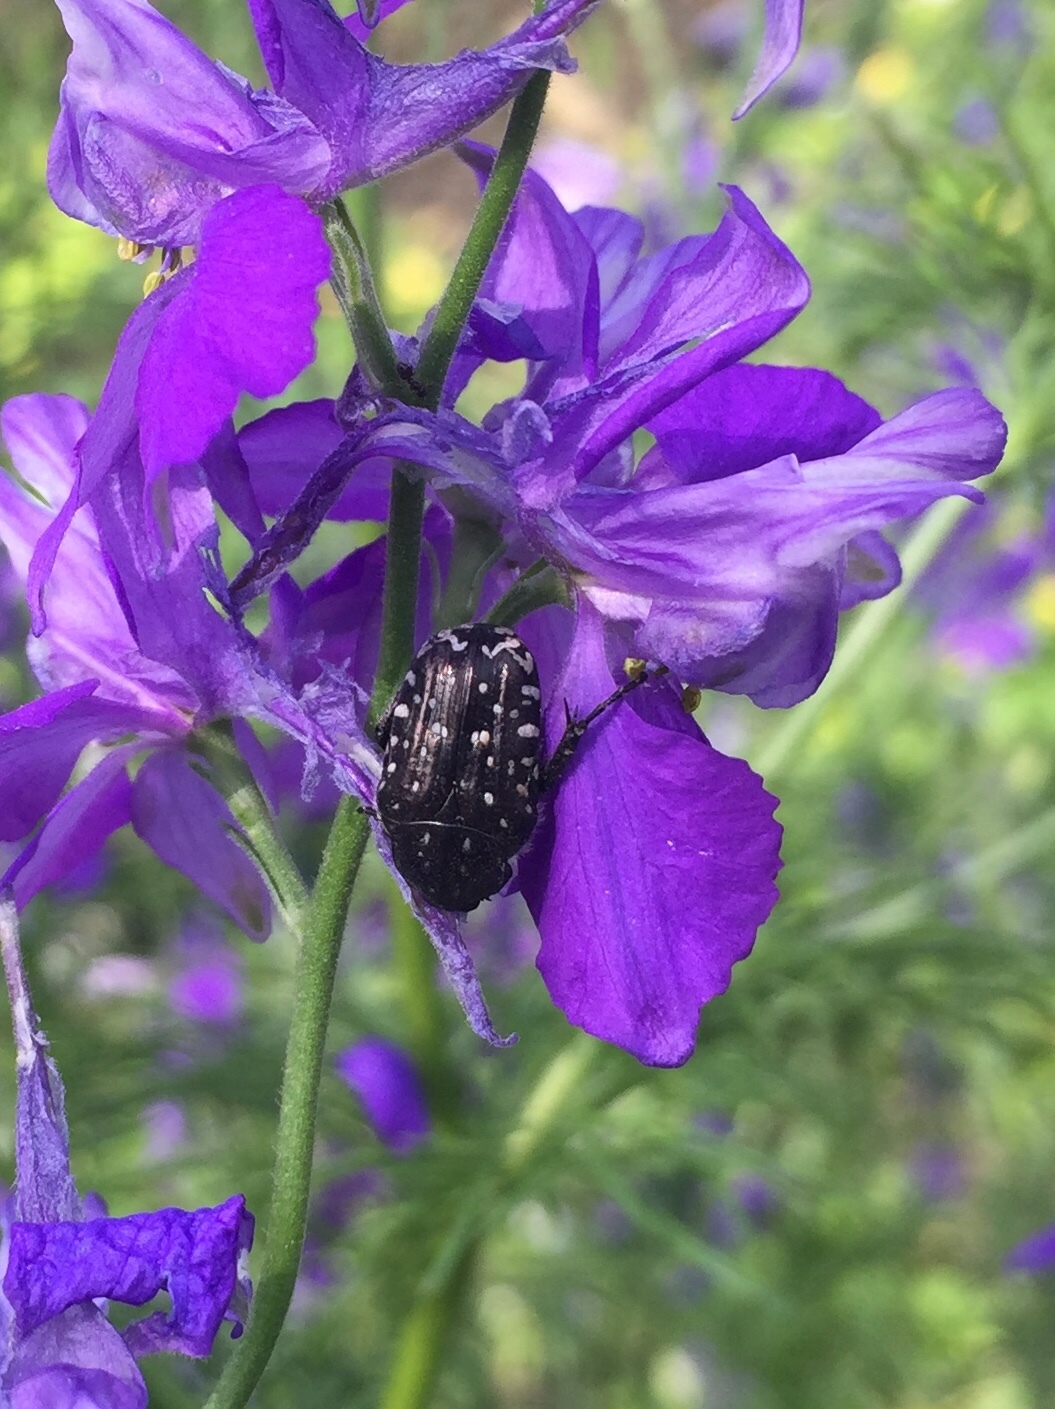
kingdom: Animalia
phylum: Arthropoda
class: Insecta
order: Coleoptera
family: Scarabaeidae
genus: Oxythyrea
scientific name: Oxythyrea funesta
